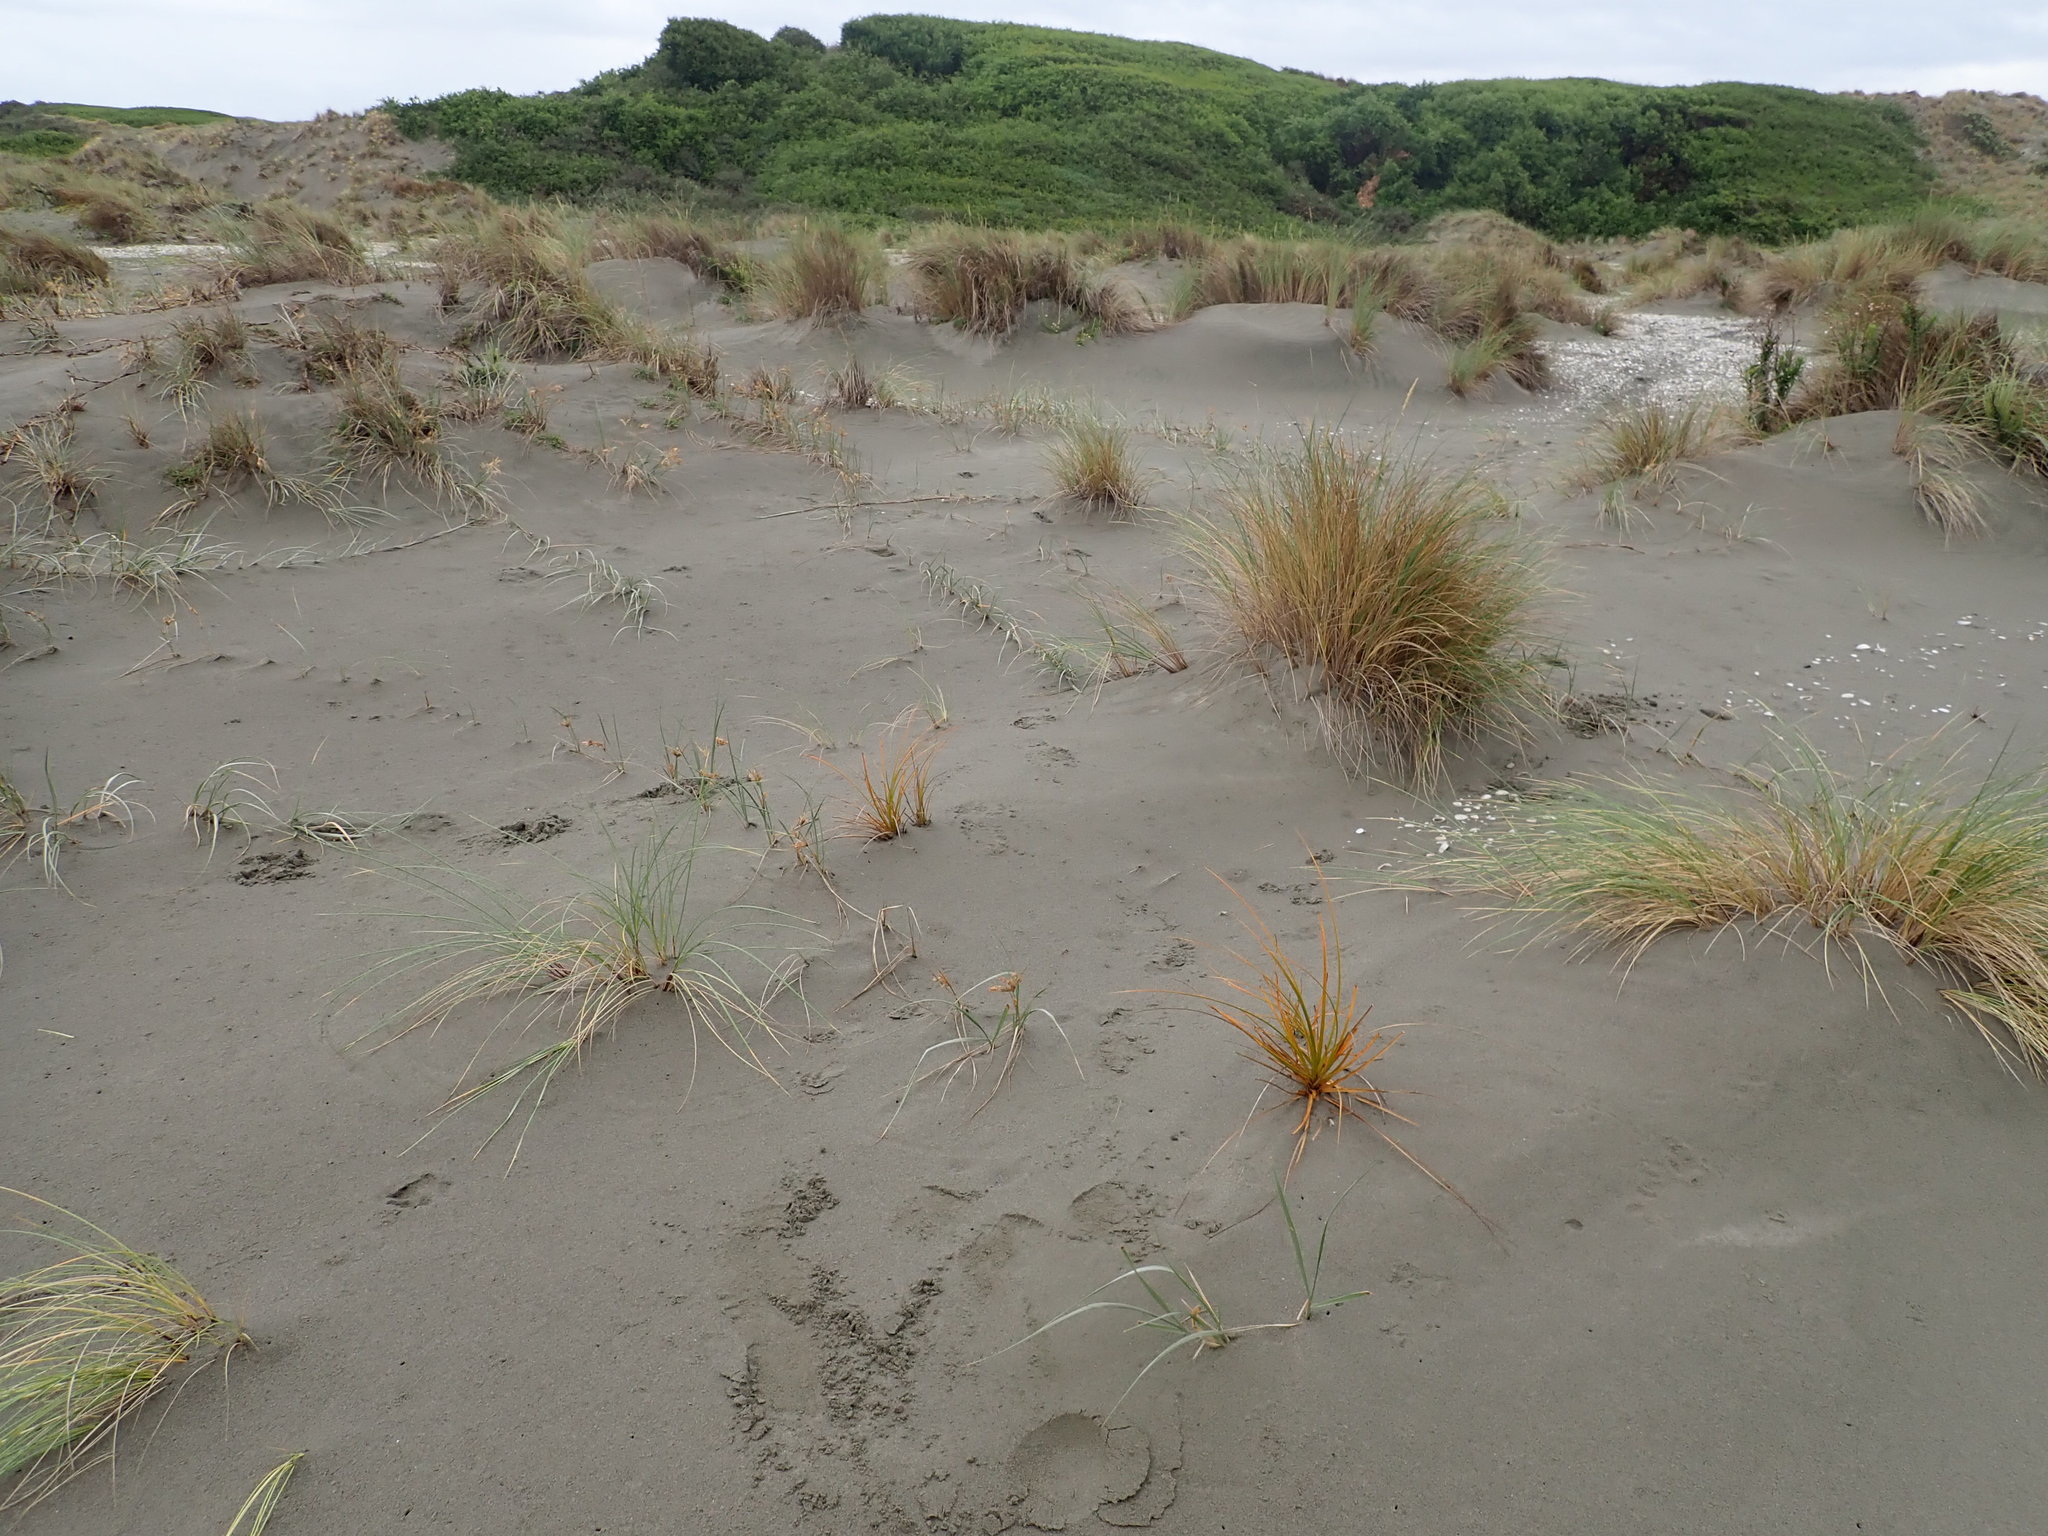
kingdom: Plantae
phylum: Tracheophyta
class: Magnoliopsida
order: Fabales
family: Fabaceae
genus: Acacia
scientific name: Acacia longifolia
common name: Sydney golden wattle
